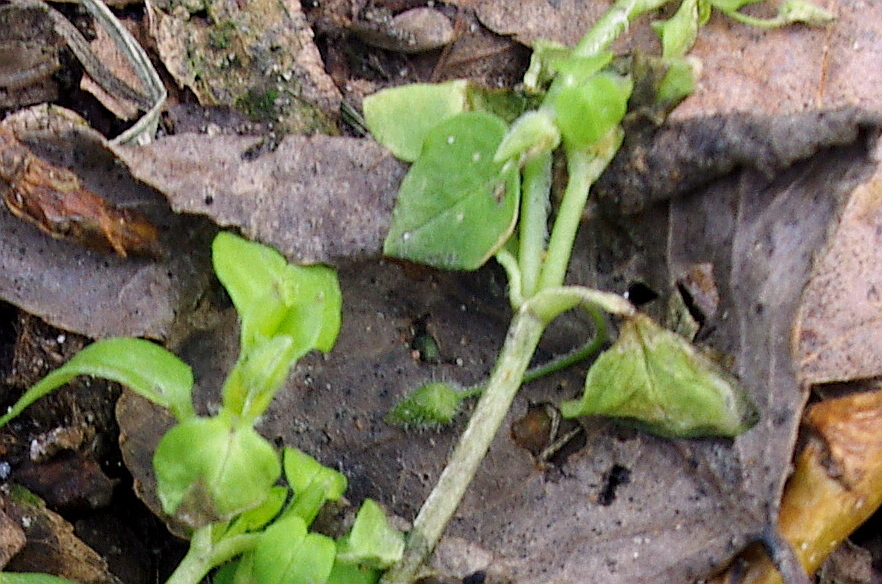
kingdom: Plantae
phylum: Tracheophyta
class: Magnoliopsida
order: Caryophyllales
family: Caryophyllaceae
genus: Stellaria
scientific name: Stellaria media
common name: Common chickweed
